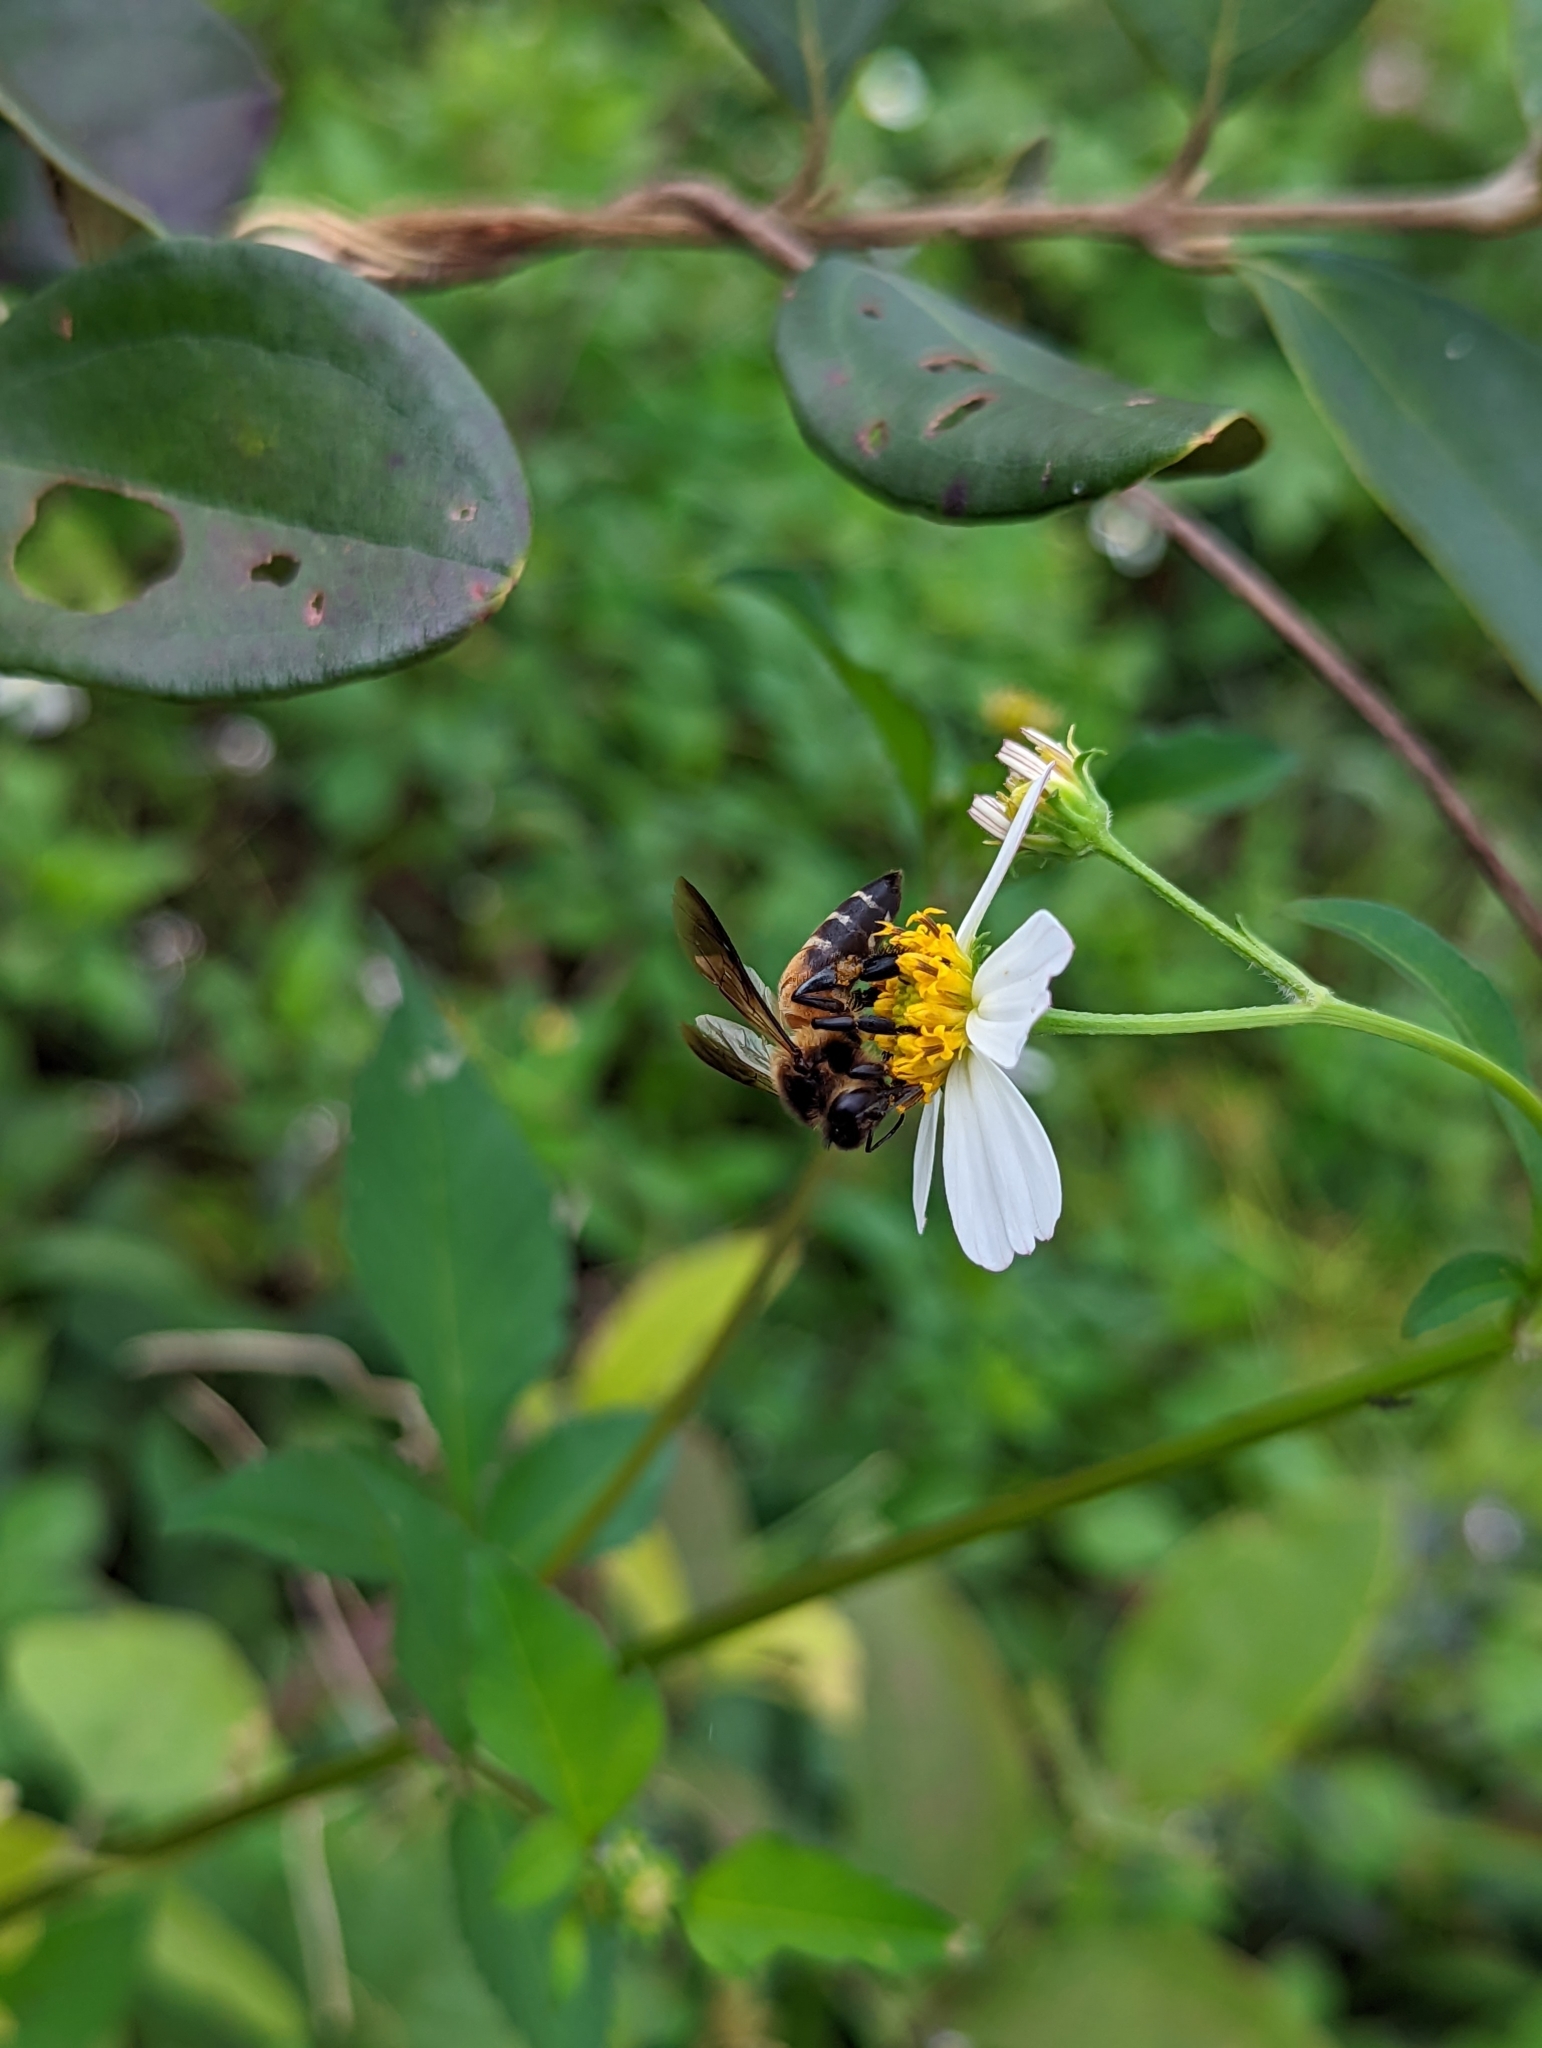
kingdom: Animalia
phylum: Arthropoda
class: Insecta
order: Hymenoptera
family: Apidae
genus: Apis
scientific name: Apis dorsata
